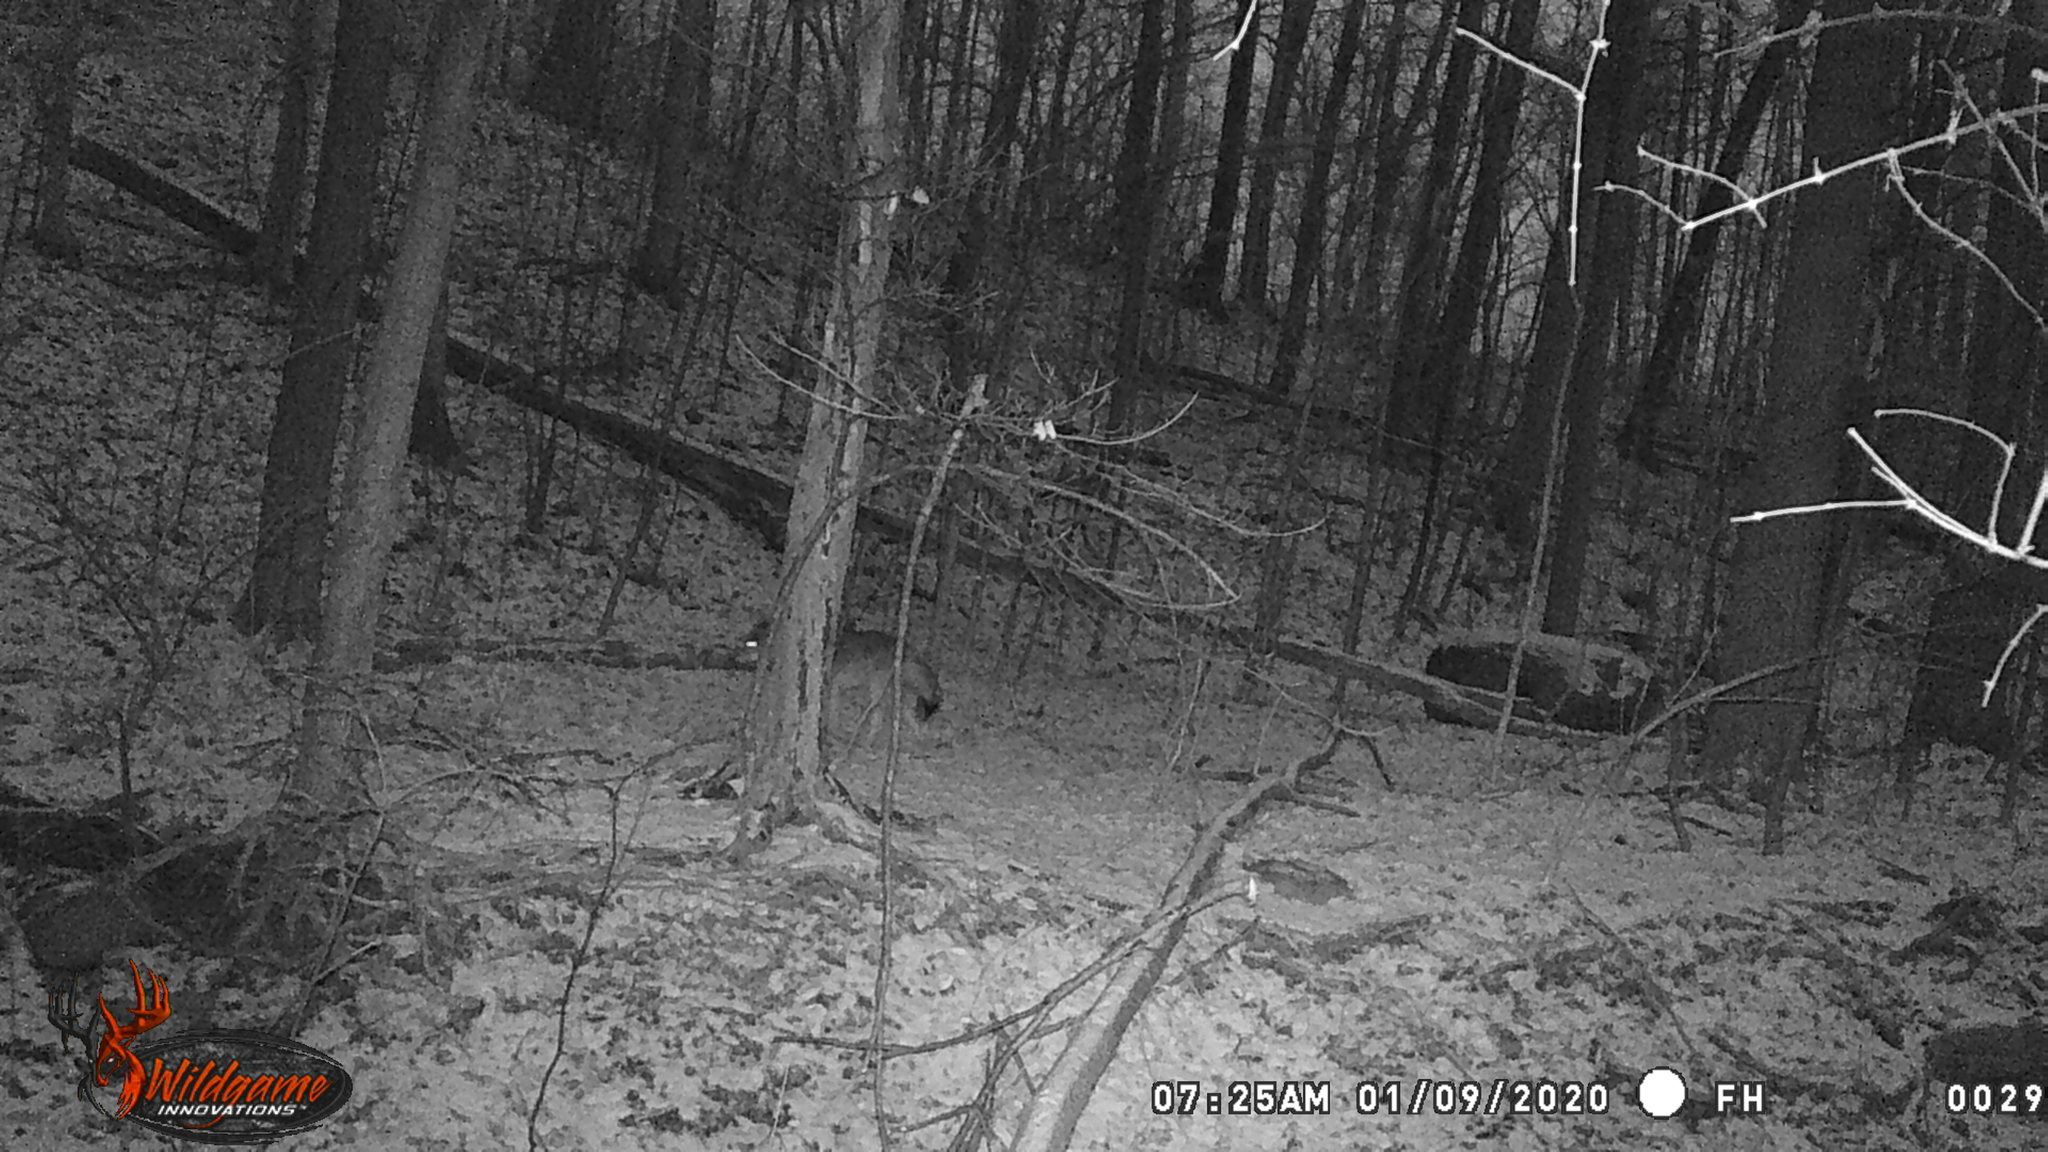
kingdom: Animalia
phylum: Chordata
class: Mammalia
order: Carnivora
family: Canidae
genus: Canis
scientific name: Canis latrans
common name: Coyote
